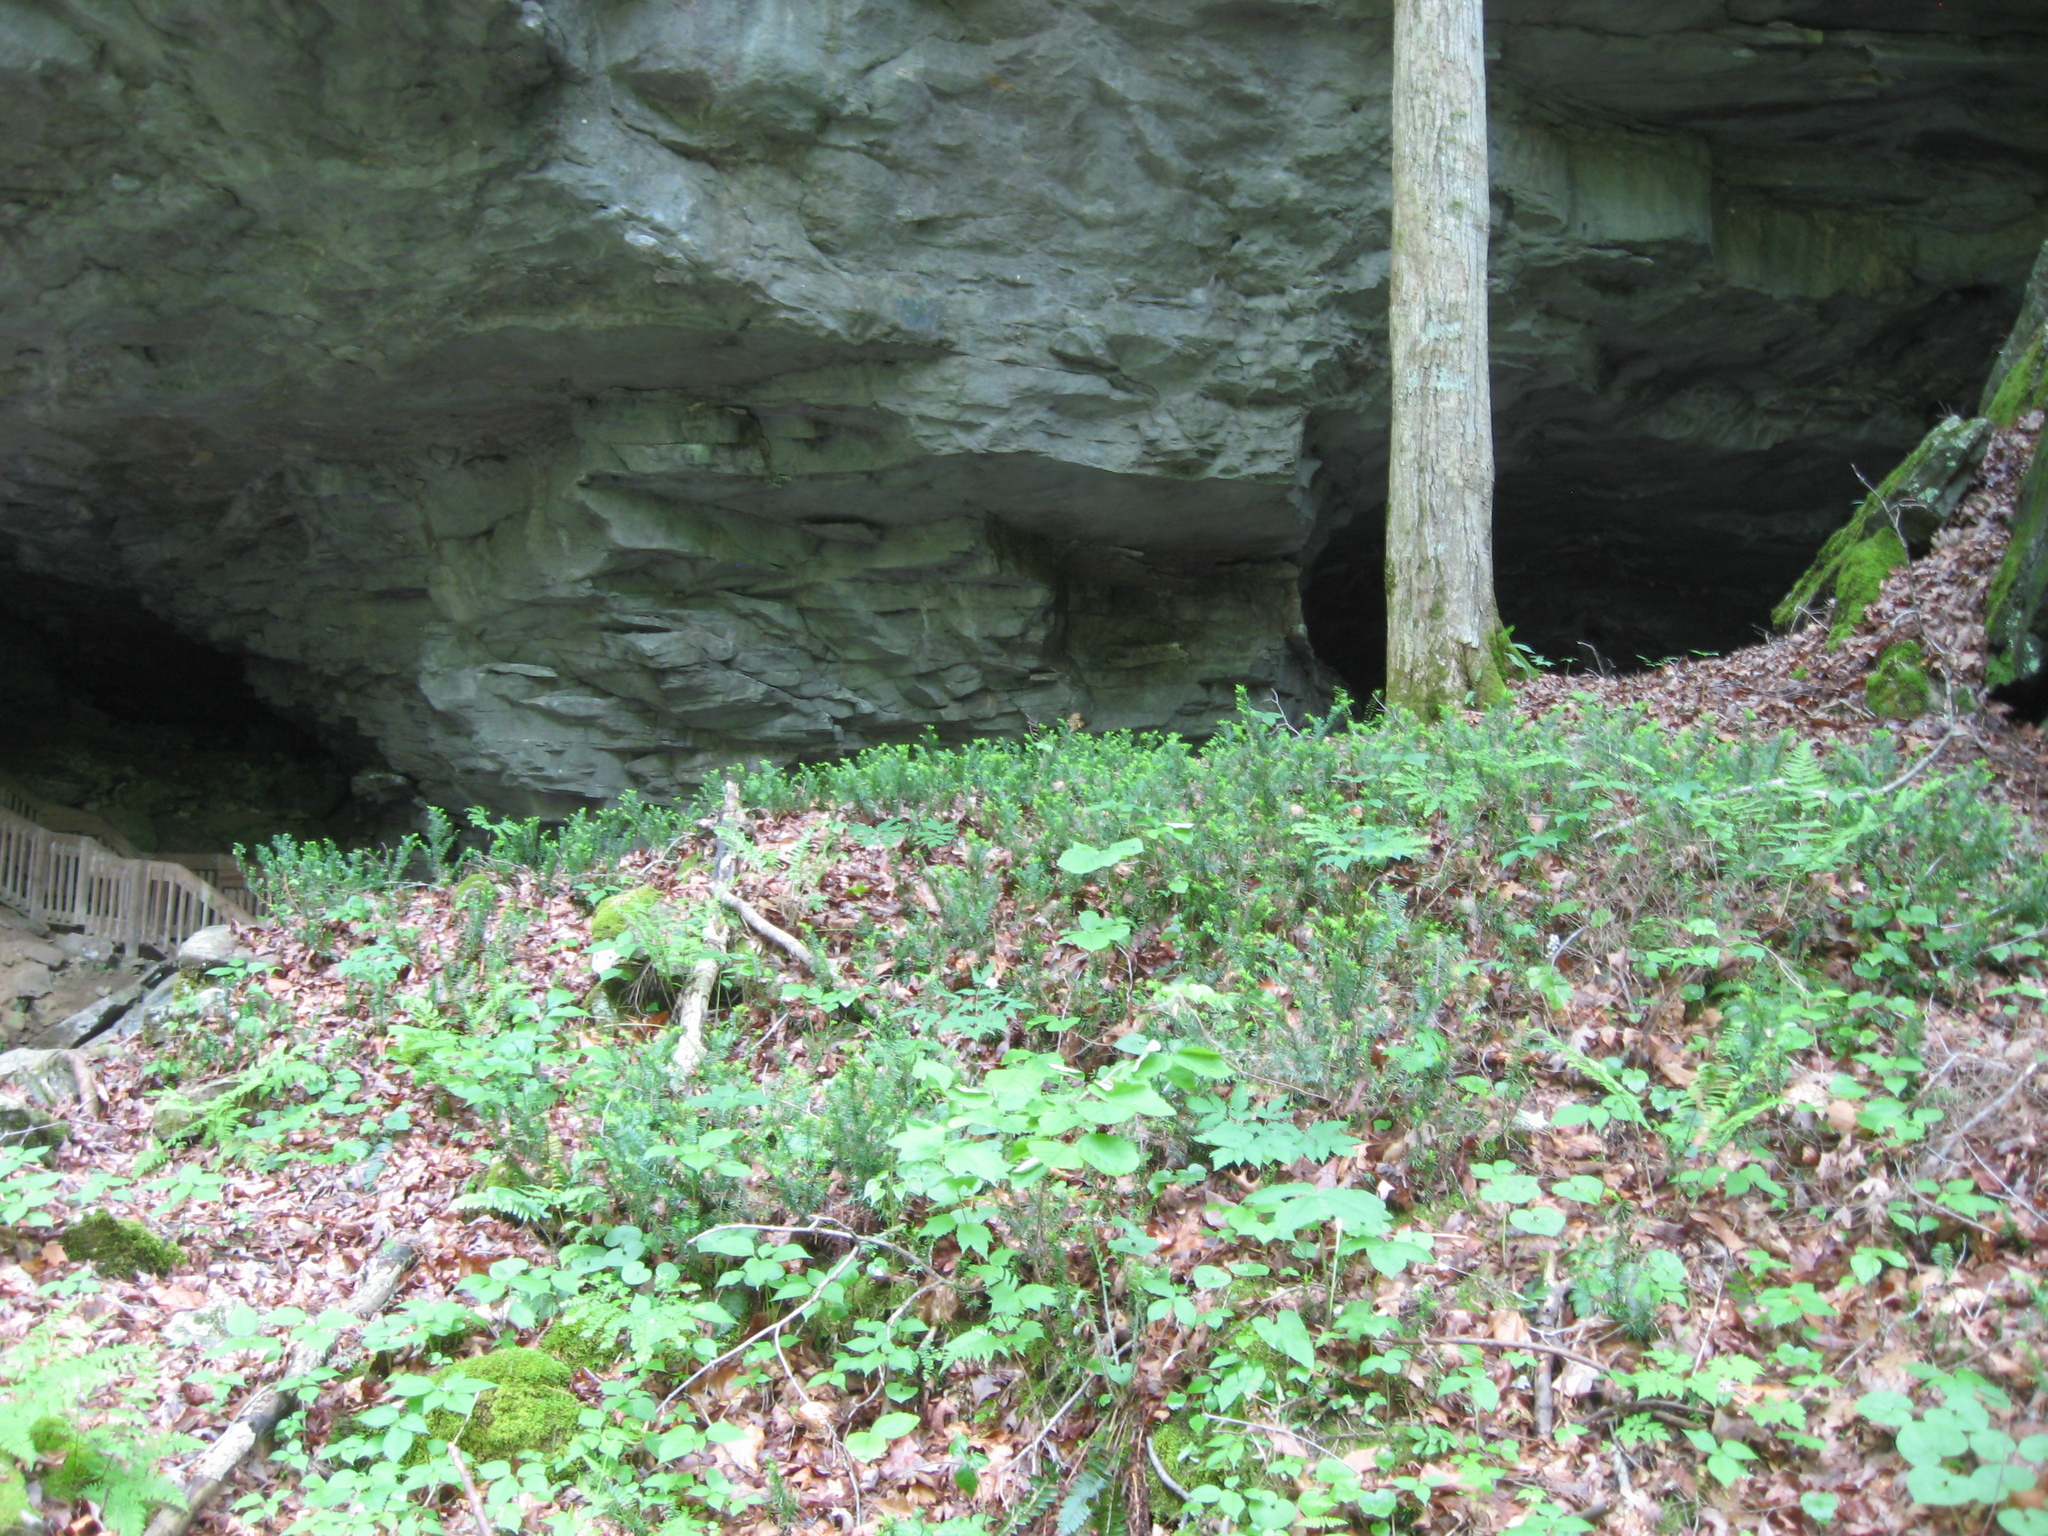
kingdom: Plantae
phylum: Tracheophyta
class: Pinopsida
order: Pinales
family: Taxaceae
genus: Taxus
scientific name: Taxus canadensis
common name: American yew
